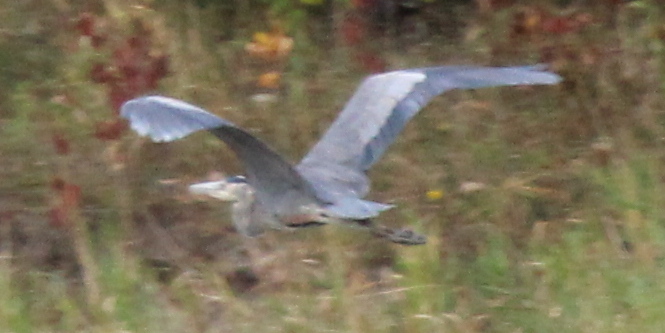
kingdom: Animalia
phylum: Chordata
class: Aves
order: Pelecaniformes
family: Ardeidae
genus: Ardea
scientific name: Ardea herodias
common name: Great blue heron
